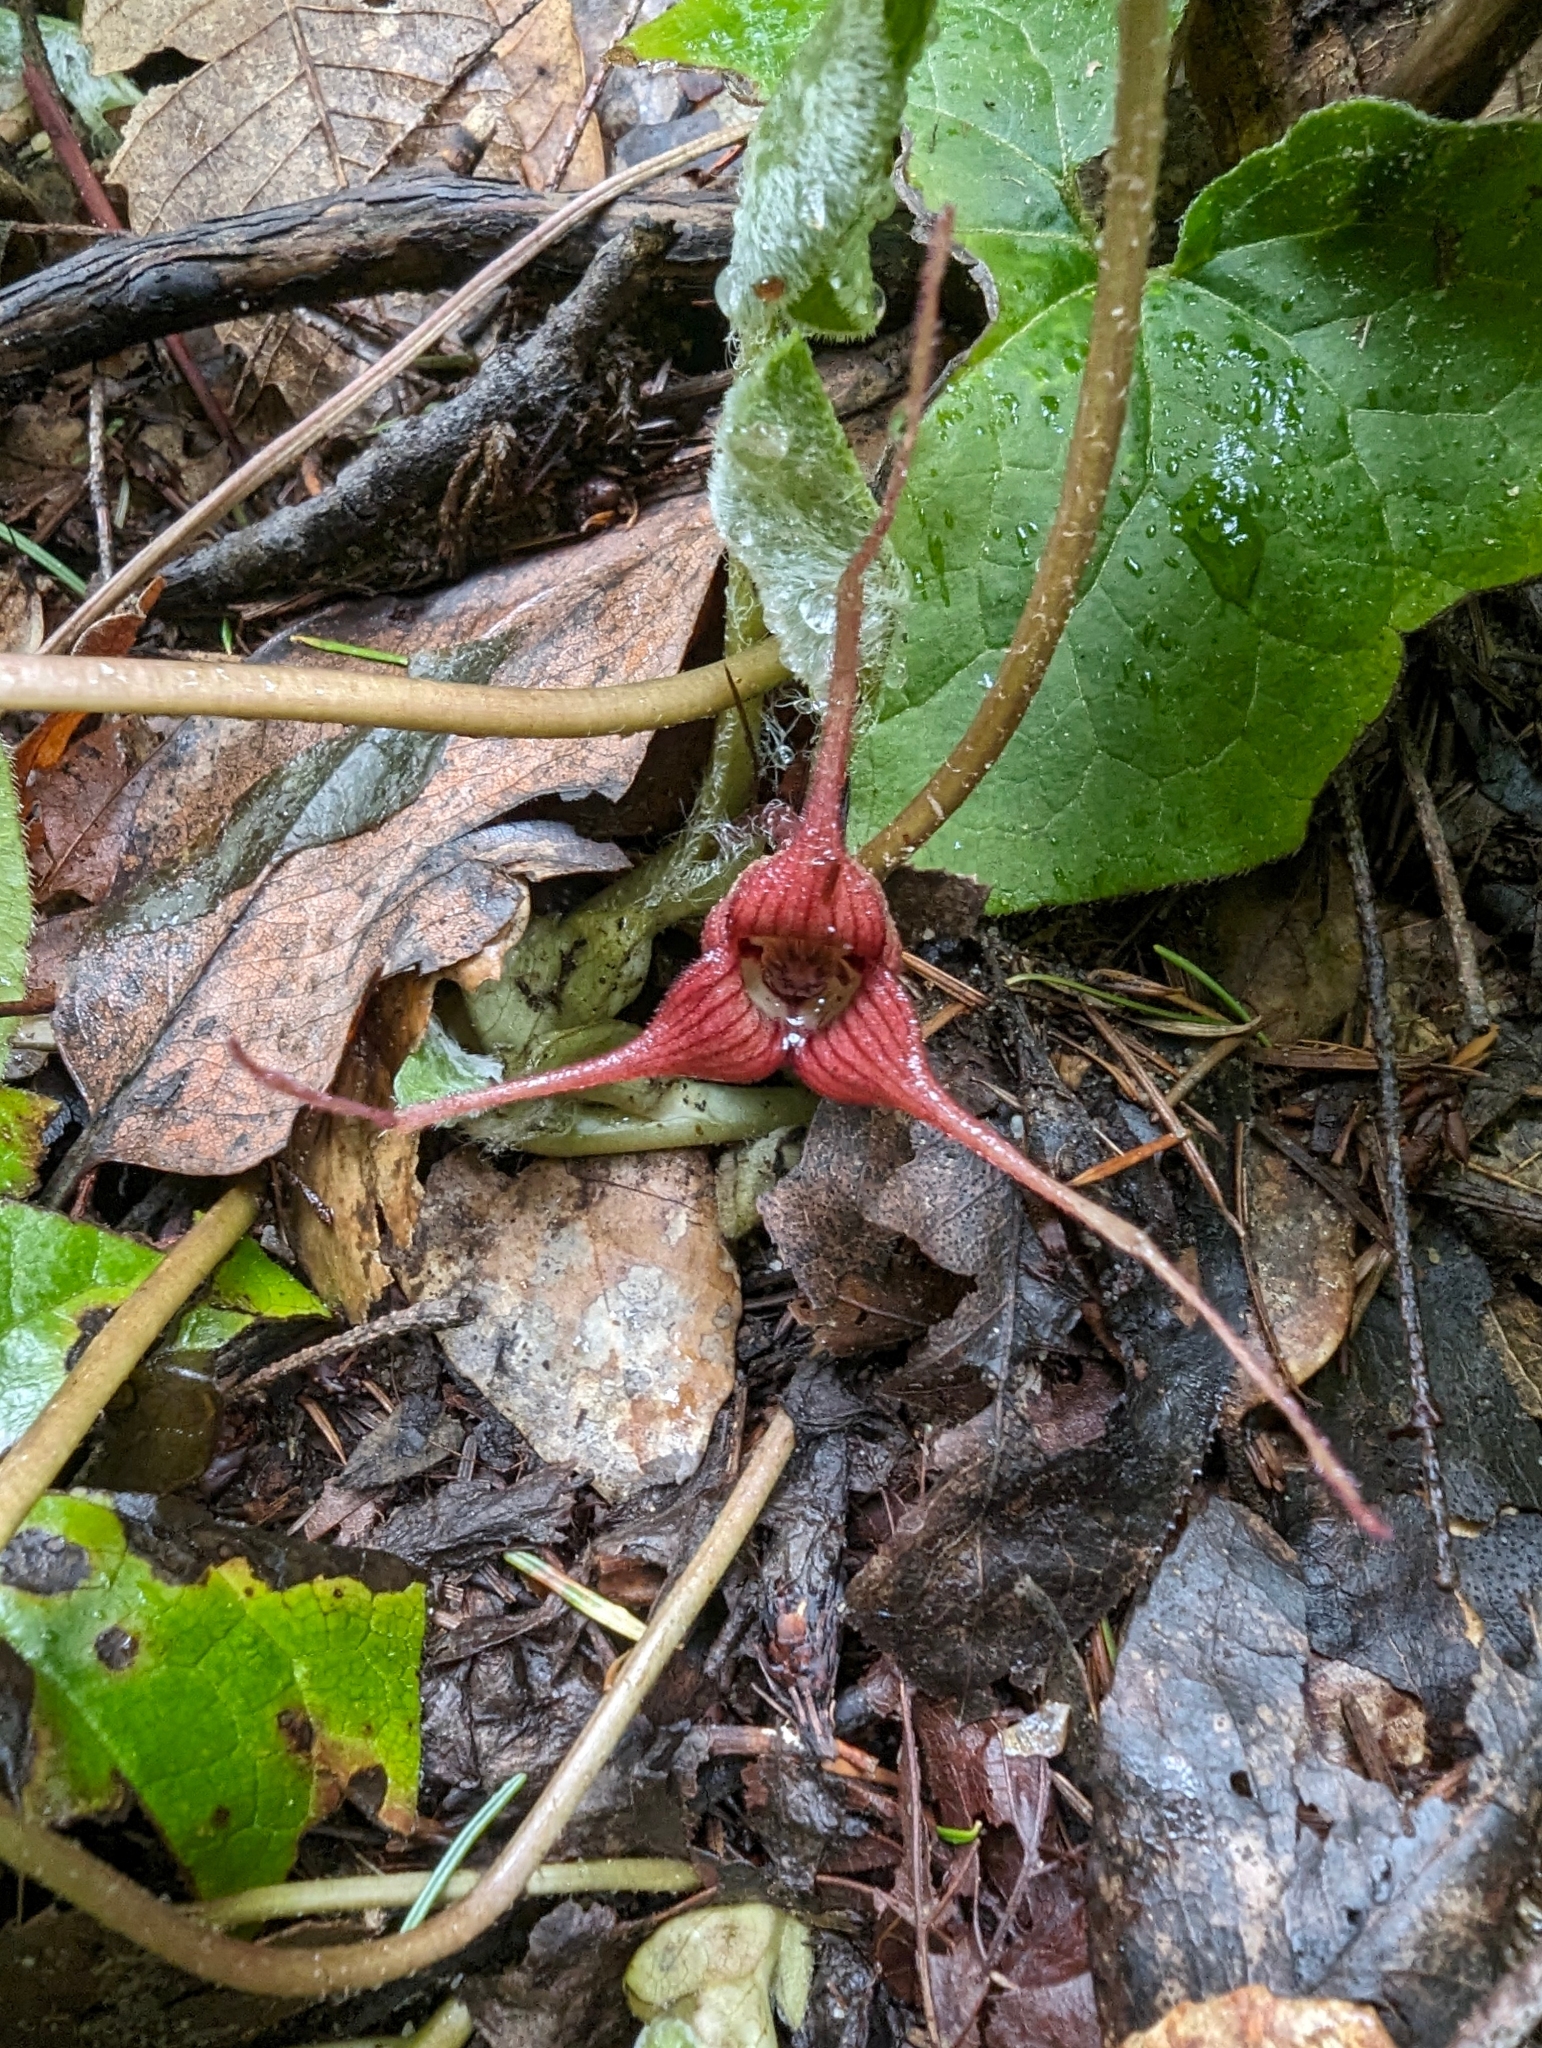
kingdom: Plantae
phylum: Tracheophyta
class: Magnoliopsida
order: Piperales
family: Aristolochiaceae
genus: Asarum
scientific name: Asarum caudatum
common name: Wild ginger
